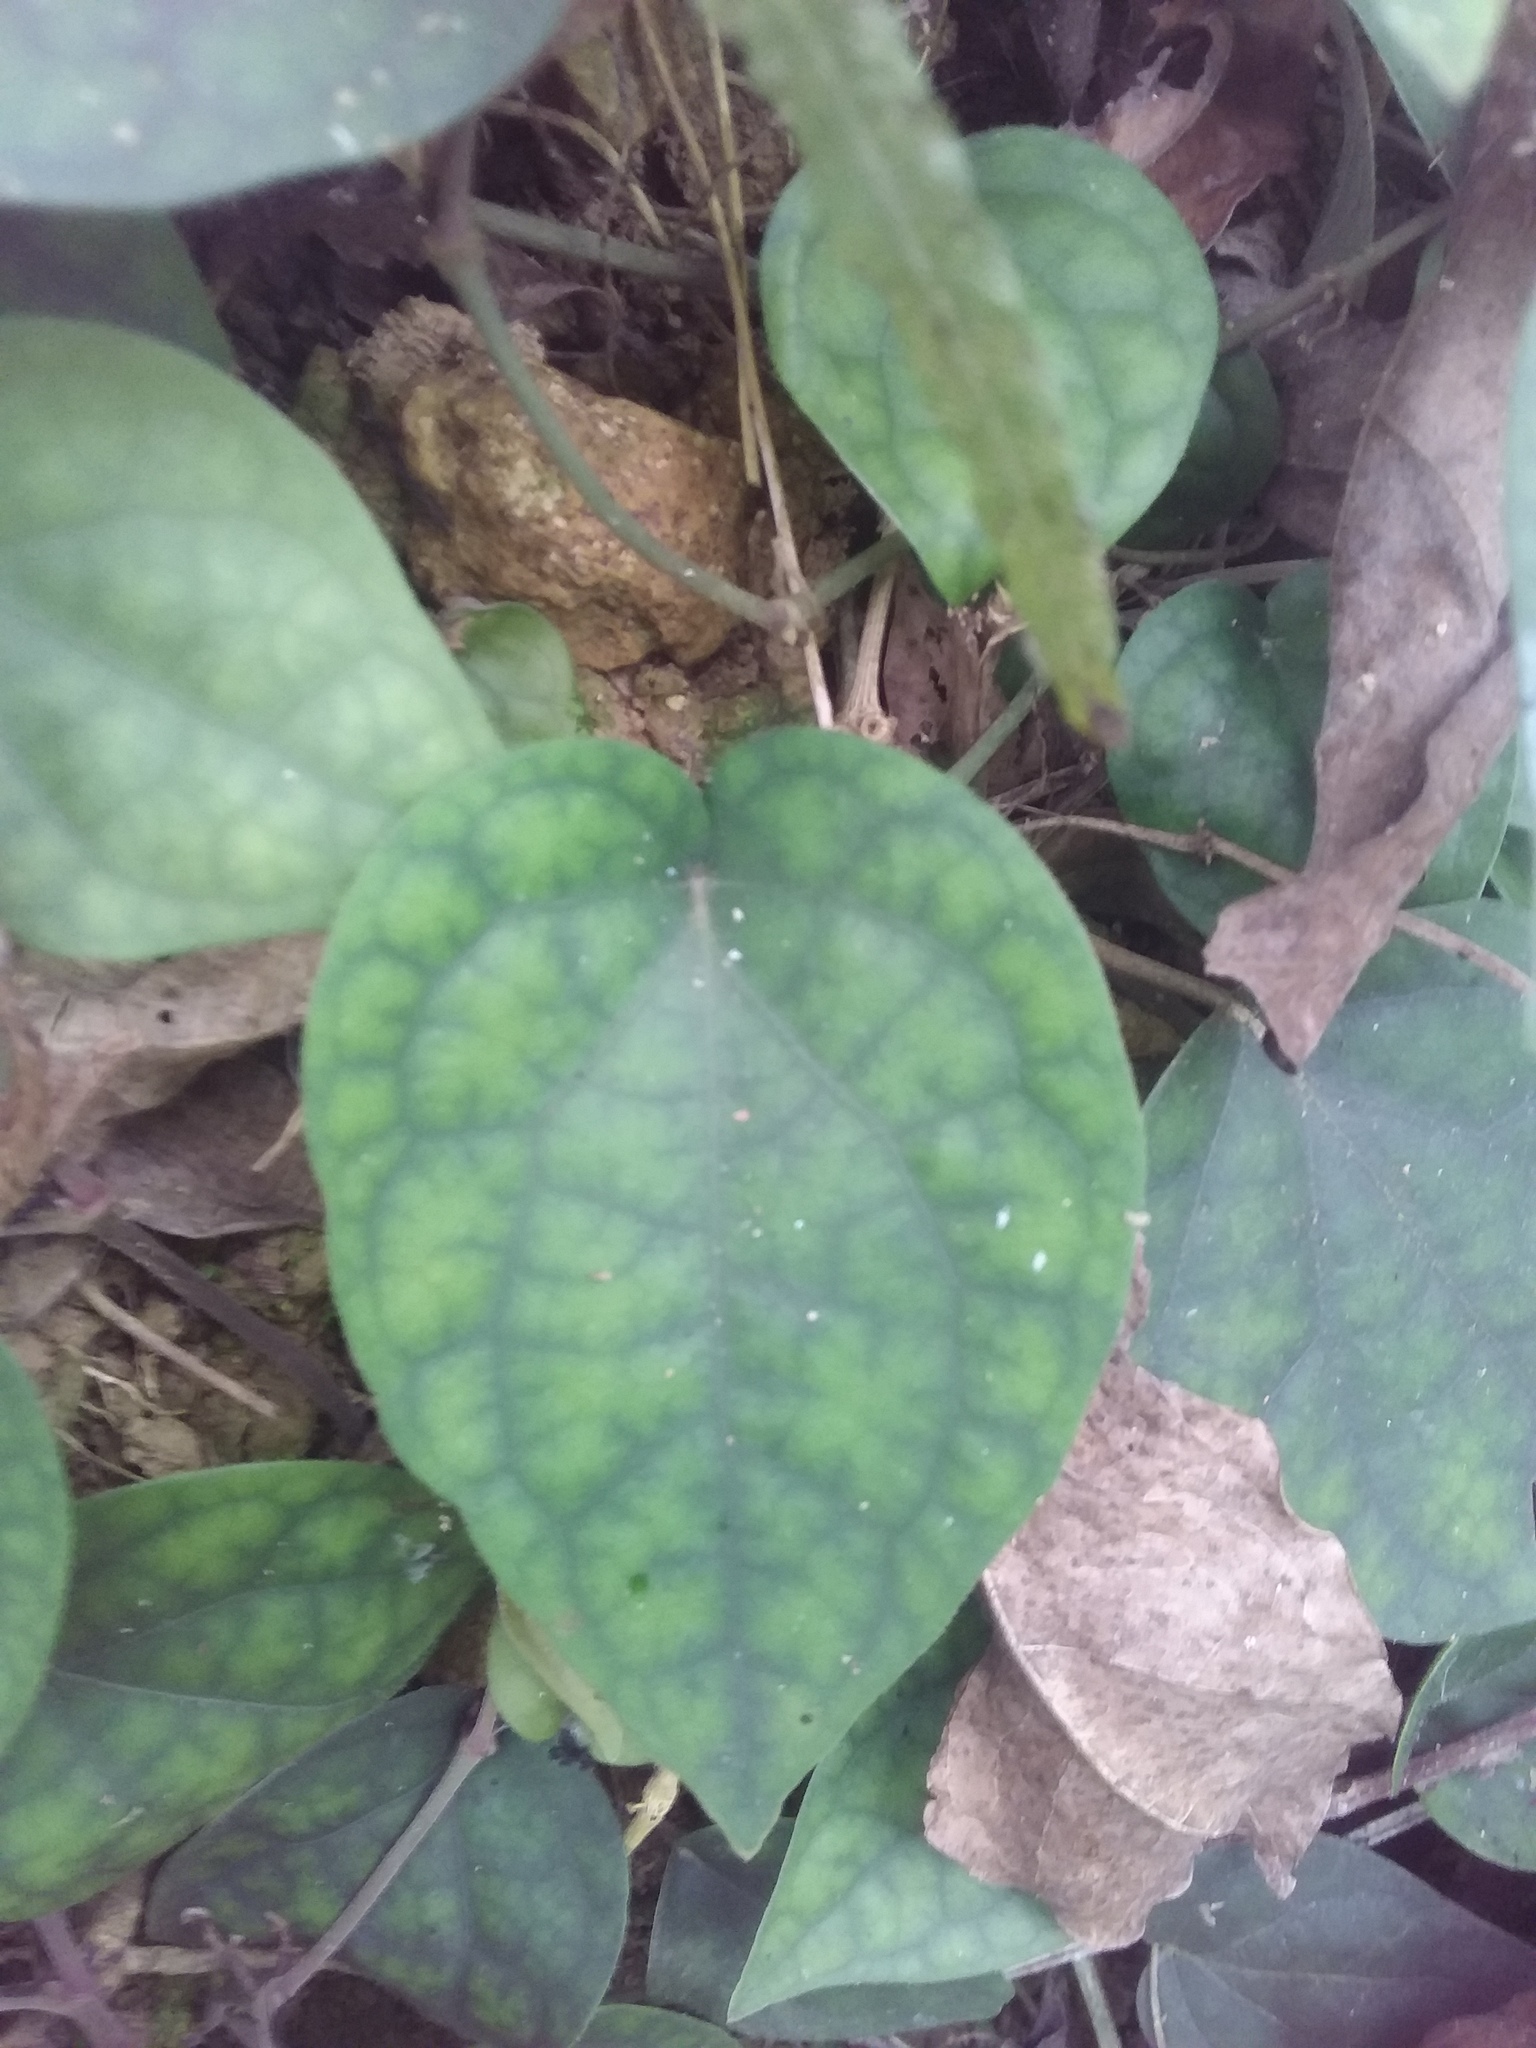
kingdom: Plantae
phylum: Tracheophyta
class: Magnoliopsida
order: Piperales
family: Piperaceae
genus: Piper
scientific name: Piper kadsura
